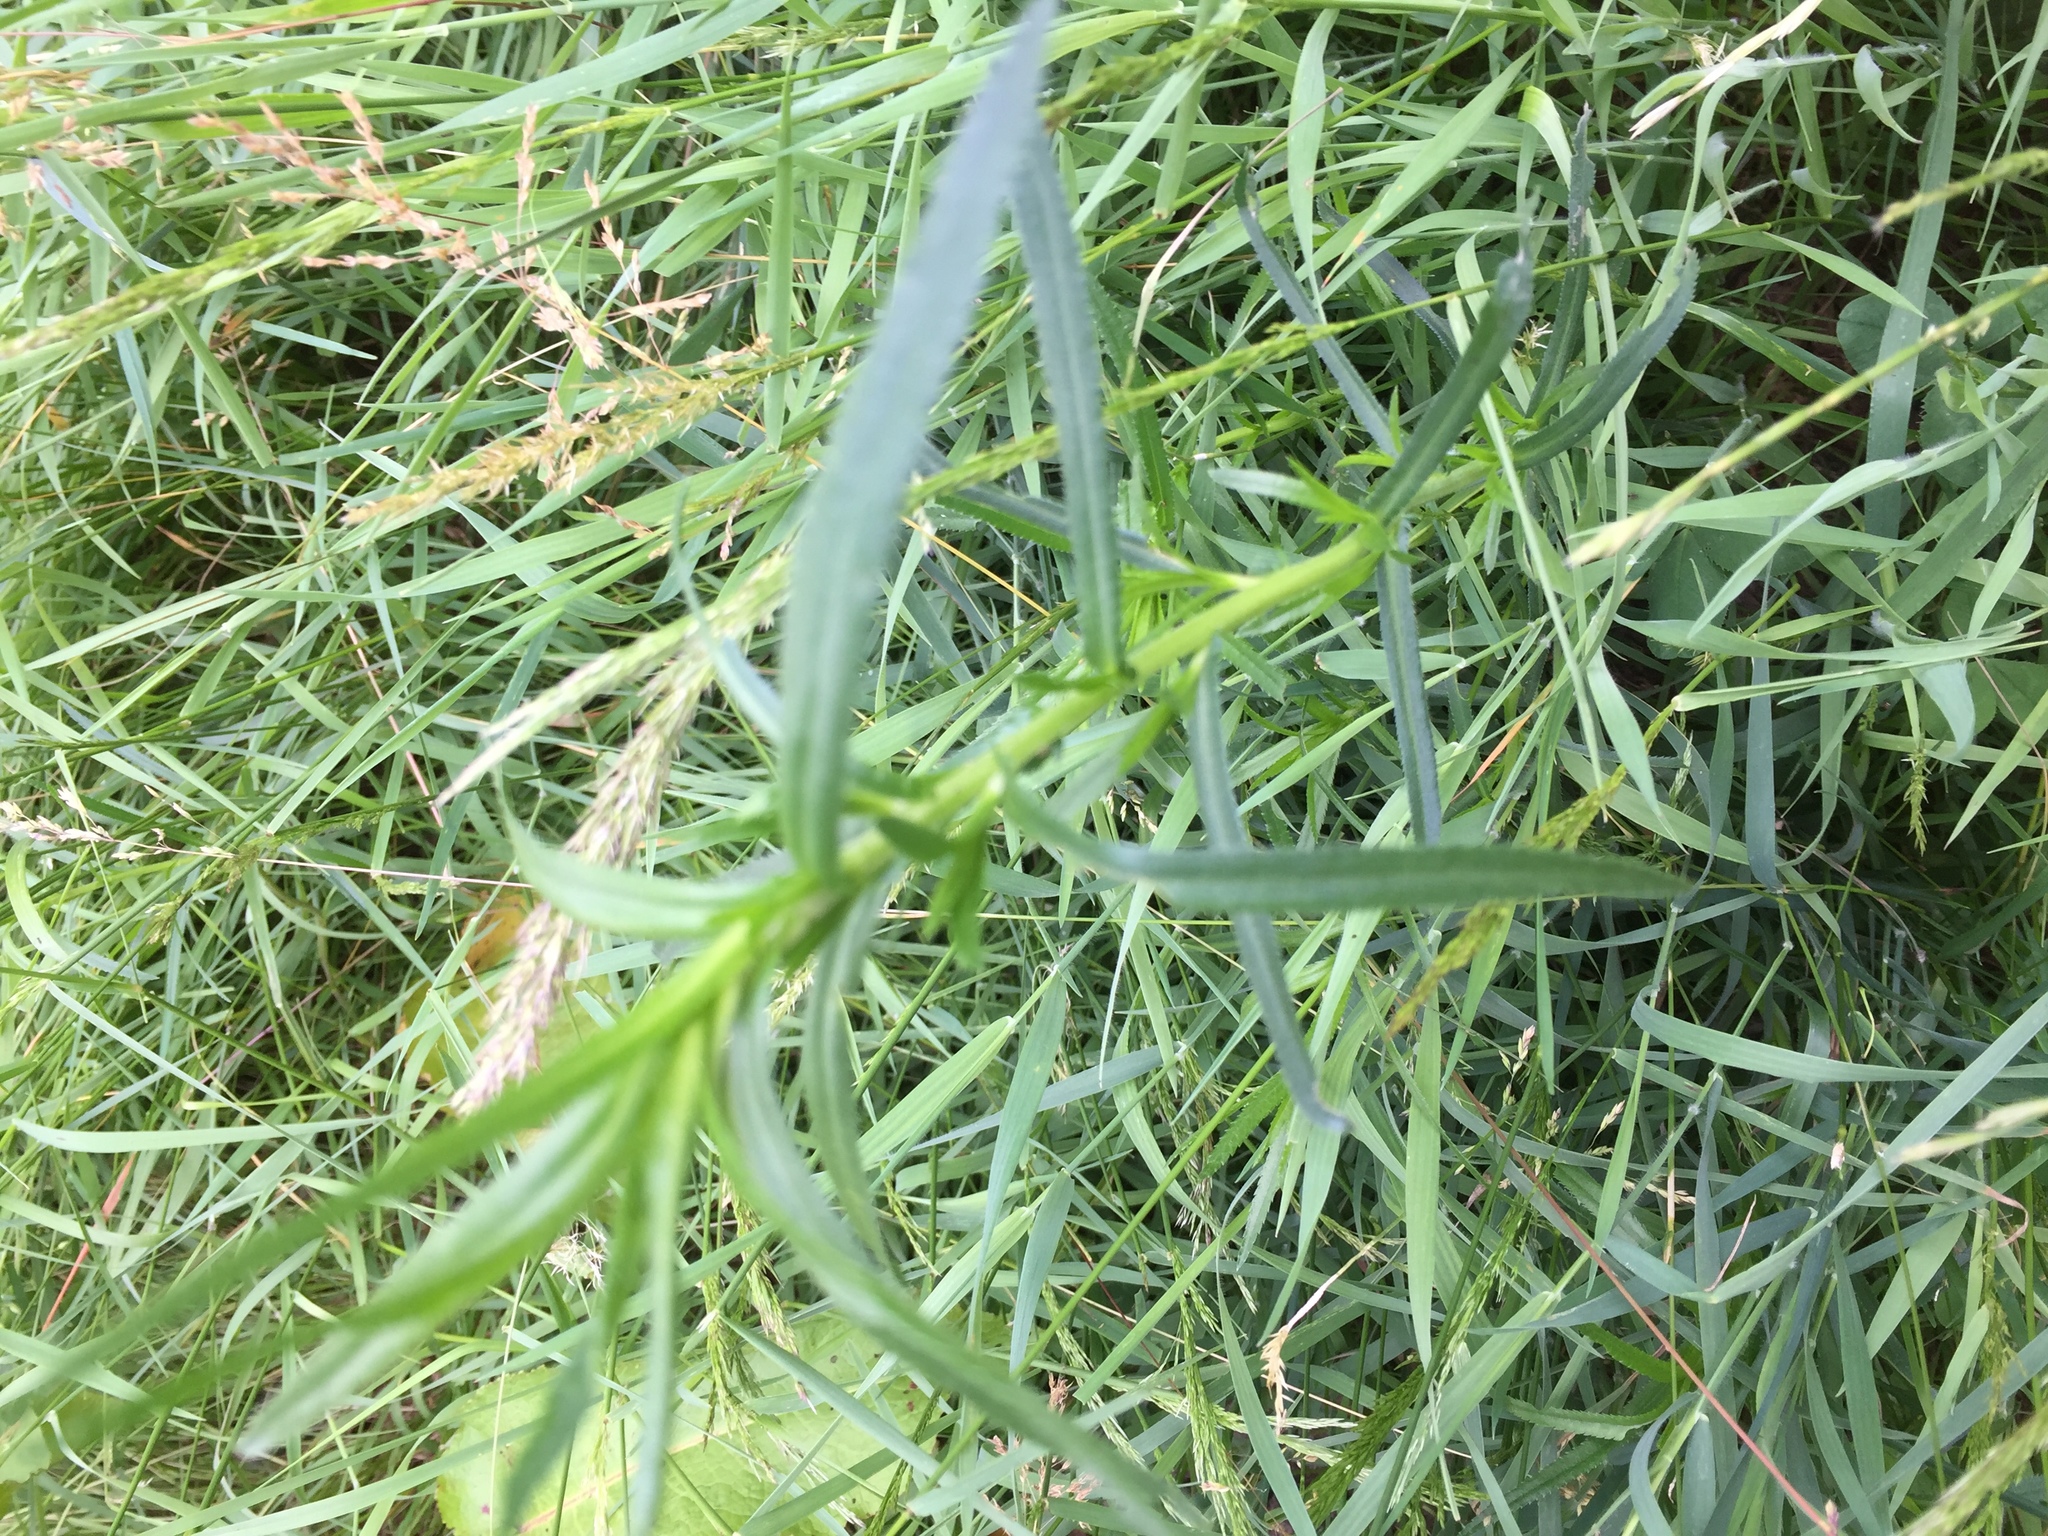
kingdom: Plantae
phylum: Tracheophyta
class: Magnoliopsida
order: Asterales
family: Asteraceae
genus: Achillea
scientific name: Achillea ptarmica
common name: Sneezeweed
